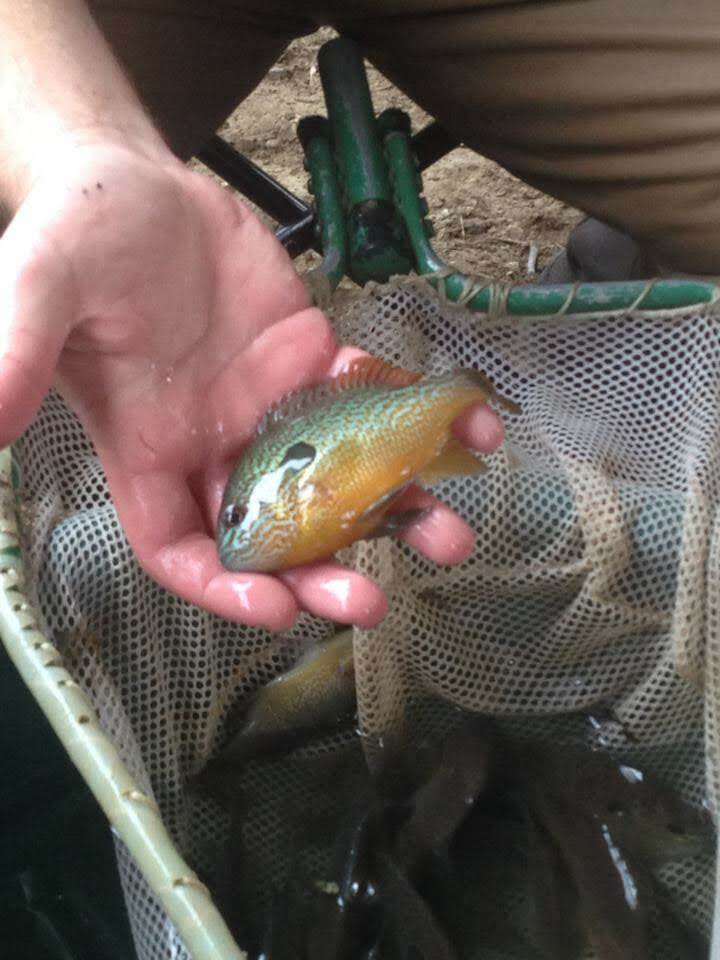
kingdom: Animalia
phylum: Chordata
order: Perciformes
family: Centrarchidae
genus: Lepomis
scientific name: Lepomis megalotis
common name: Longear sunfish
